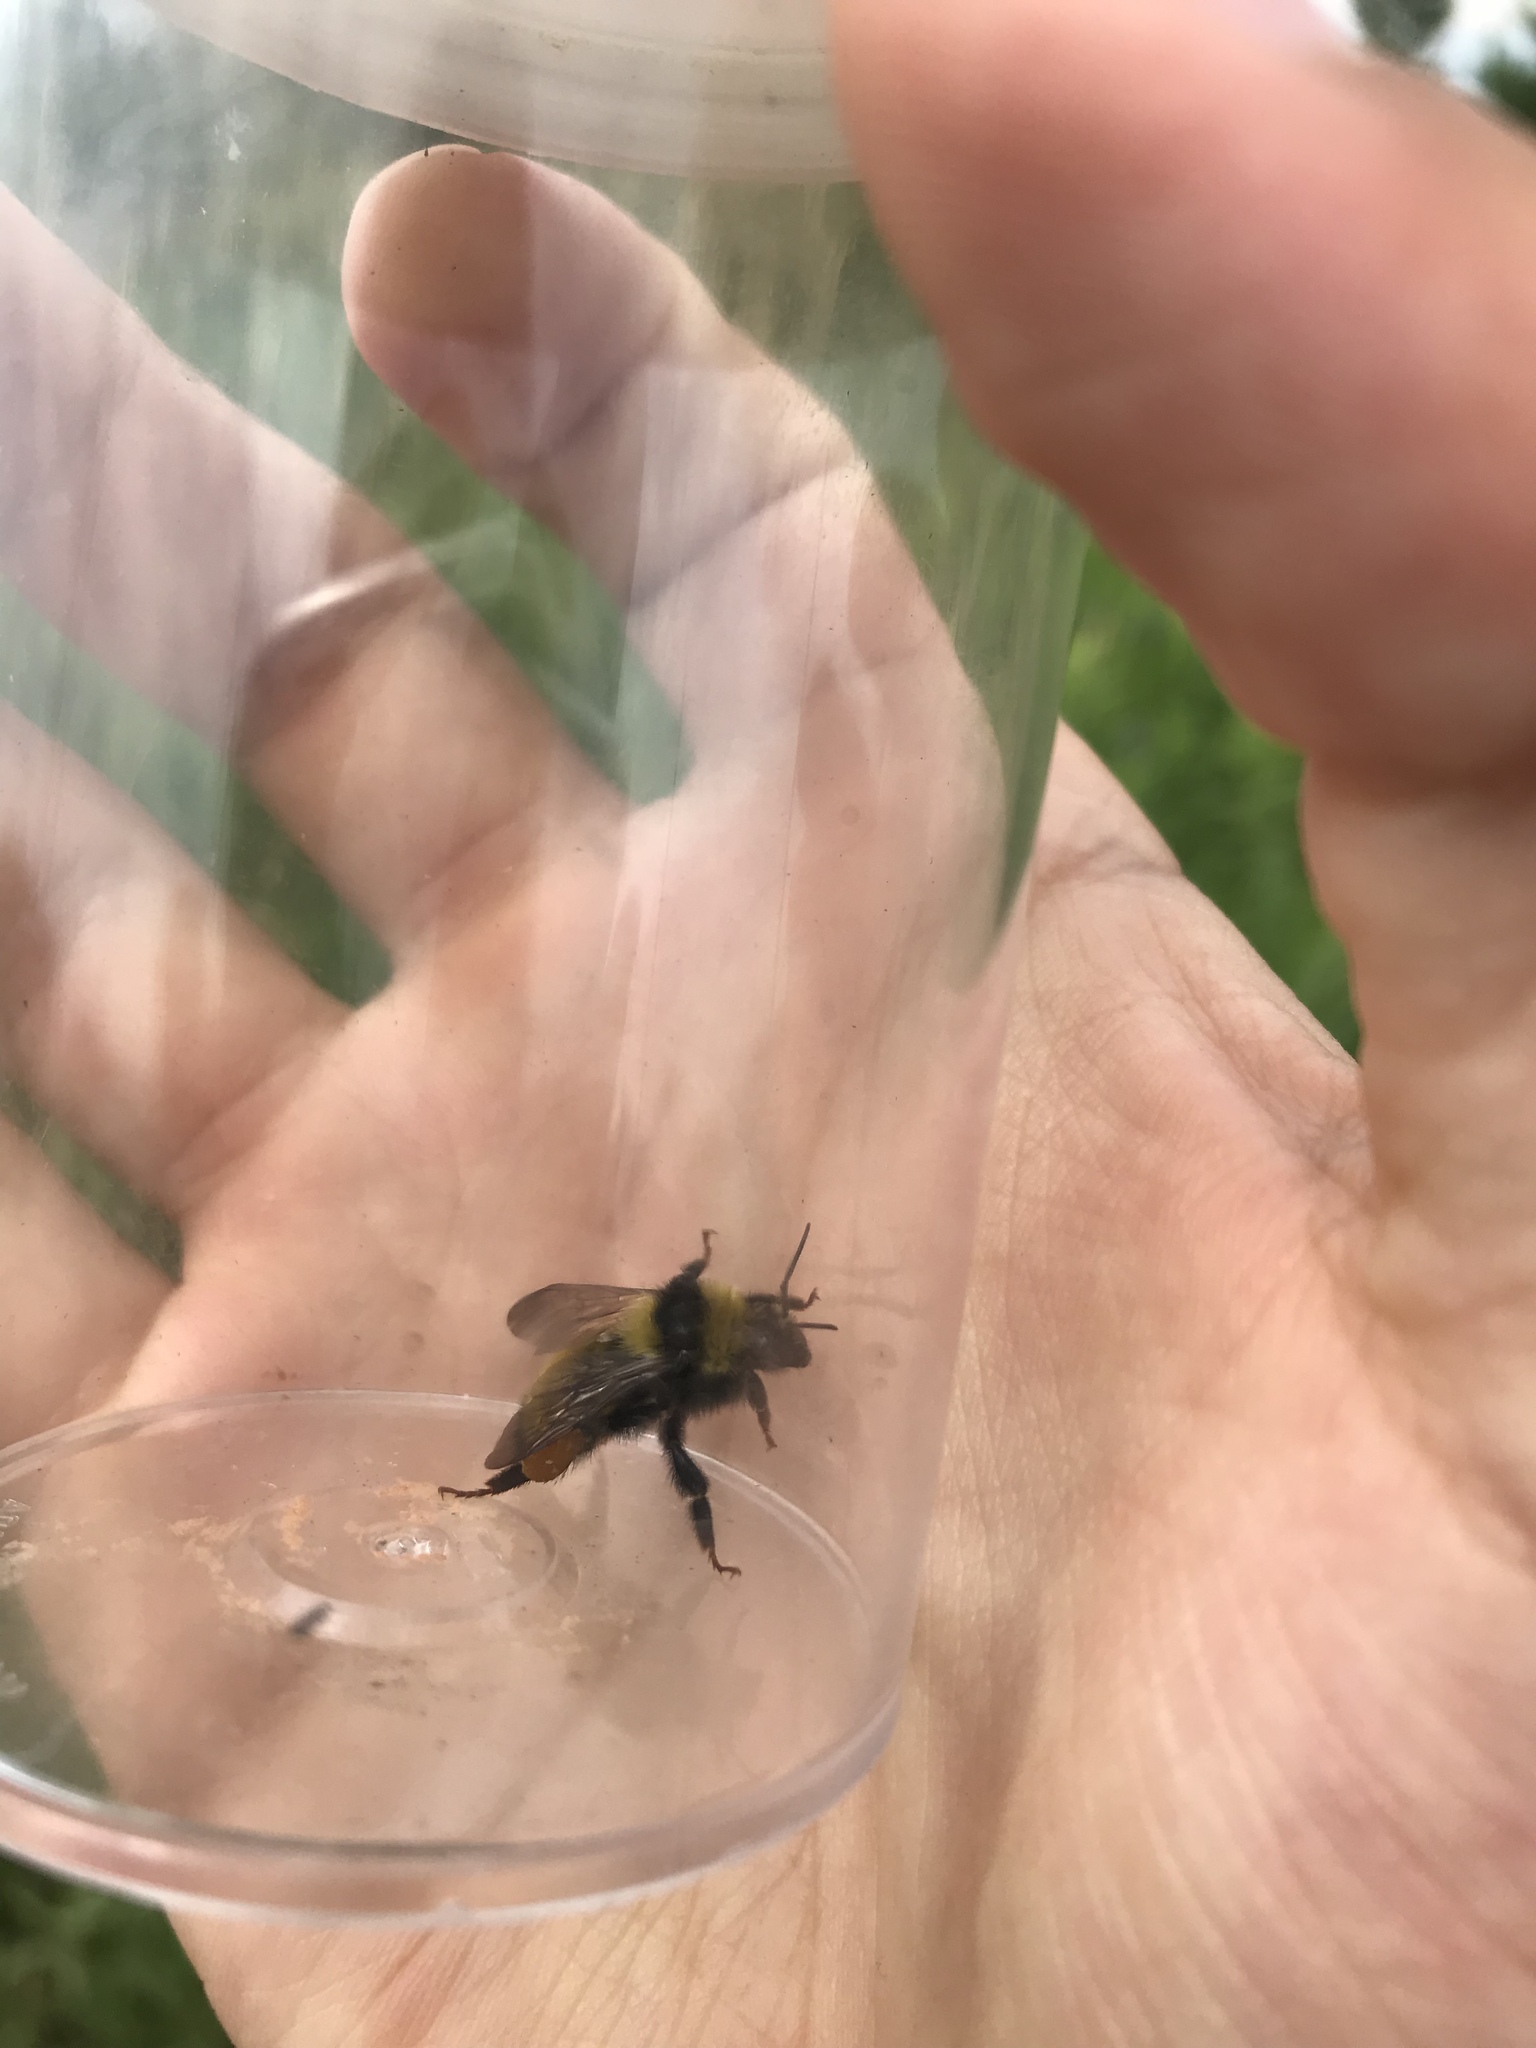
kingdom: Animalia
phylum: Arthropoda
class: Insecta
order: Hymenoptera
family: Apidae
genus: Bombus
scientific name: Bombus borealis
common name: Northern amber bumble bee
